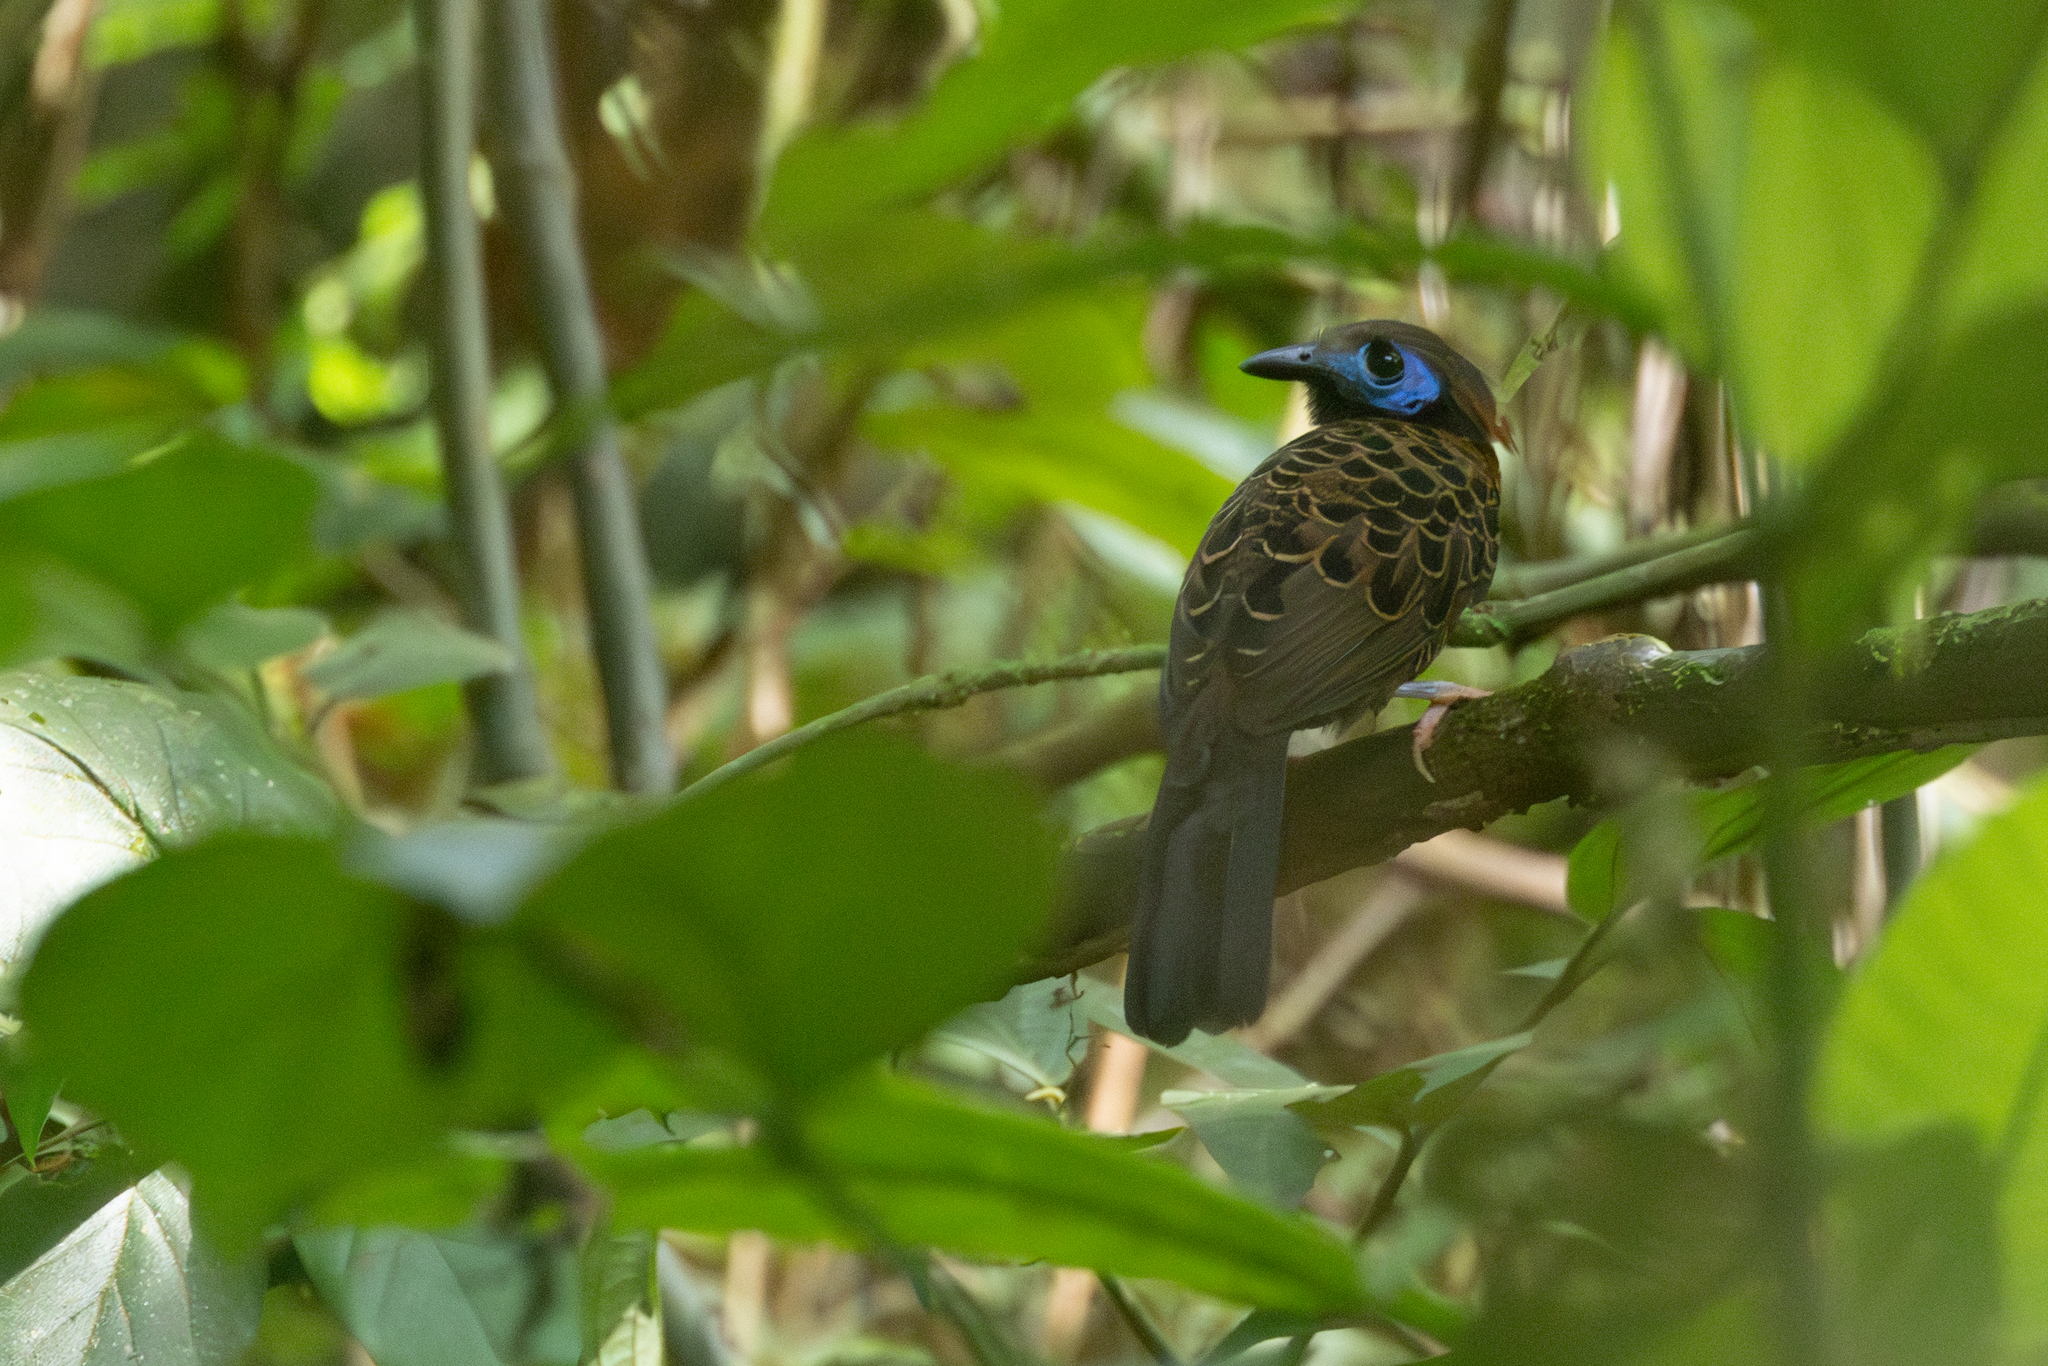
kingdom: Animalia
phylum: Chordata
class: Aves
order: Passeriformes
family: Thamnophilidae
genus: Phaenostictus
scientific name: Phaenostictus mcleannani
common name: Ocellated antbird
